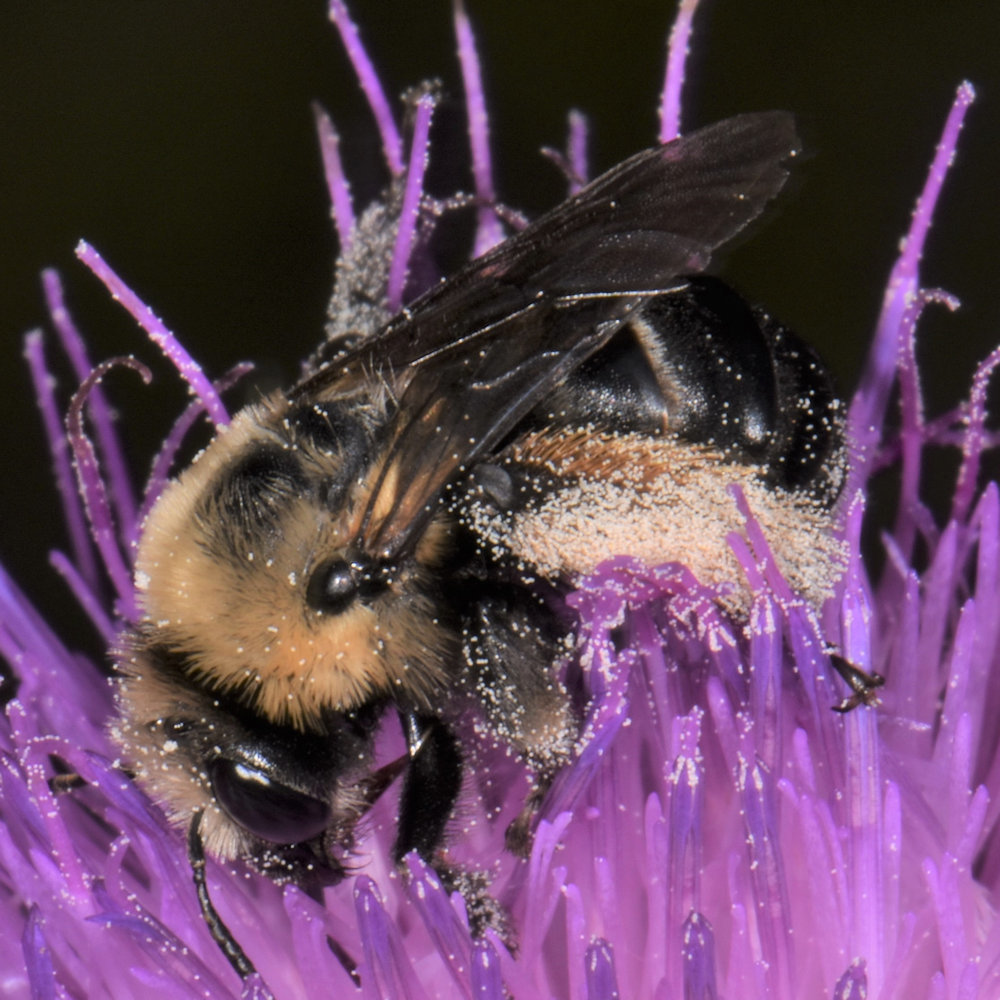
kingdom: Animalia
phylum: Arthropoda
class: Insecta
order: Hymenoptera
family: Apidae
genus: Melissodes
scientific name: Melissodes desponsus
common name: Thistle long-horned bee
